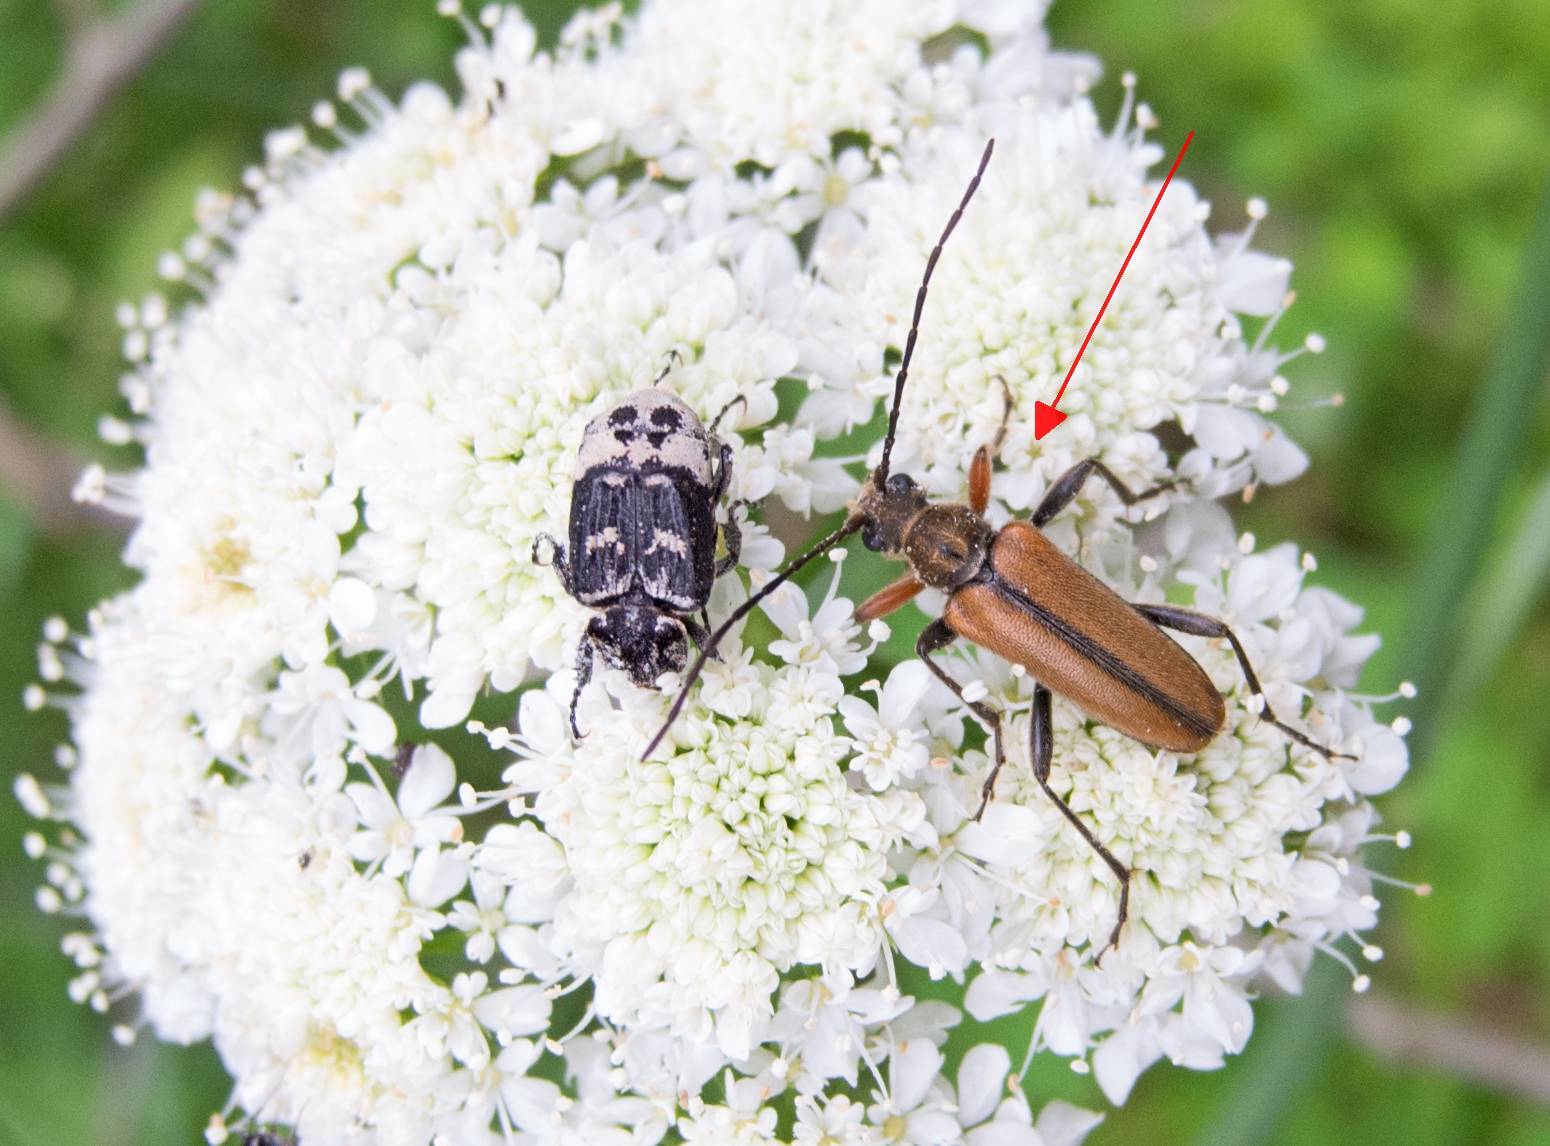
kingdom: Animalia
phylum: Arthropoda
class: Insecta
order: Coleoptera
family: Cerambycidae
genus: Cortodera
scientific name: Cortodera flavimana
